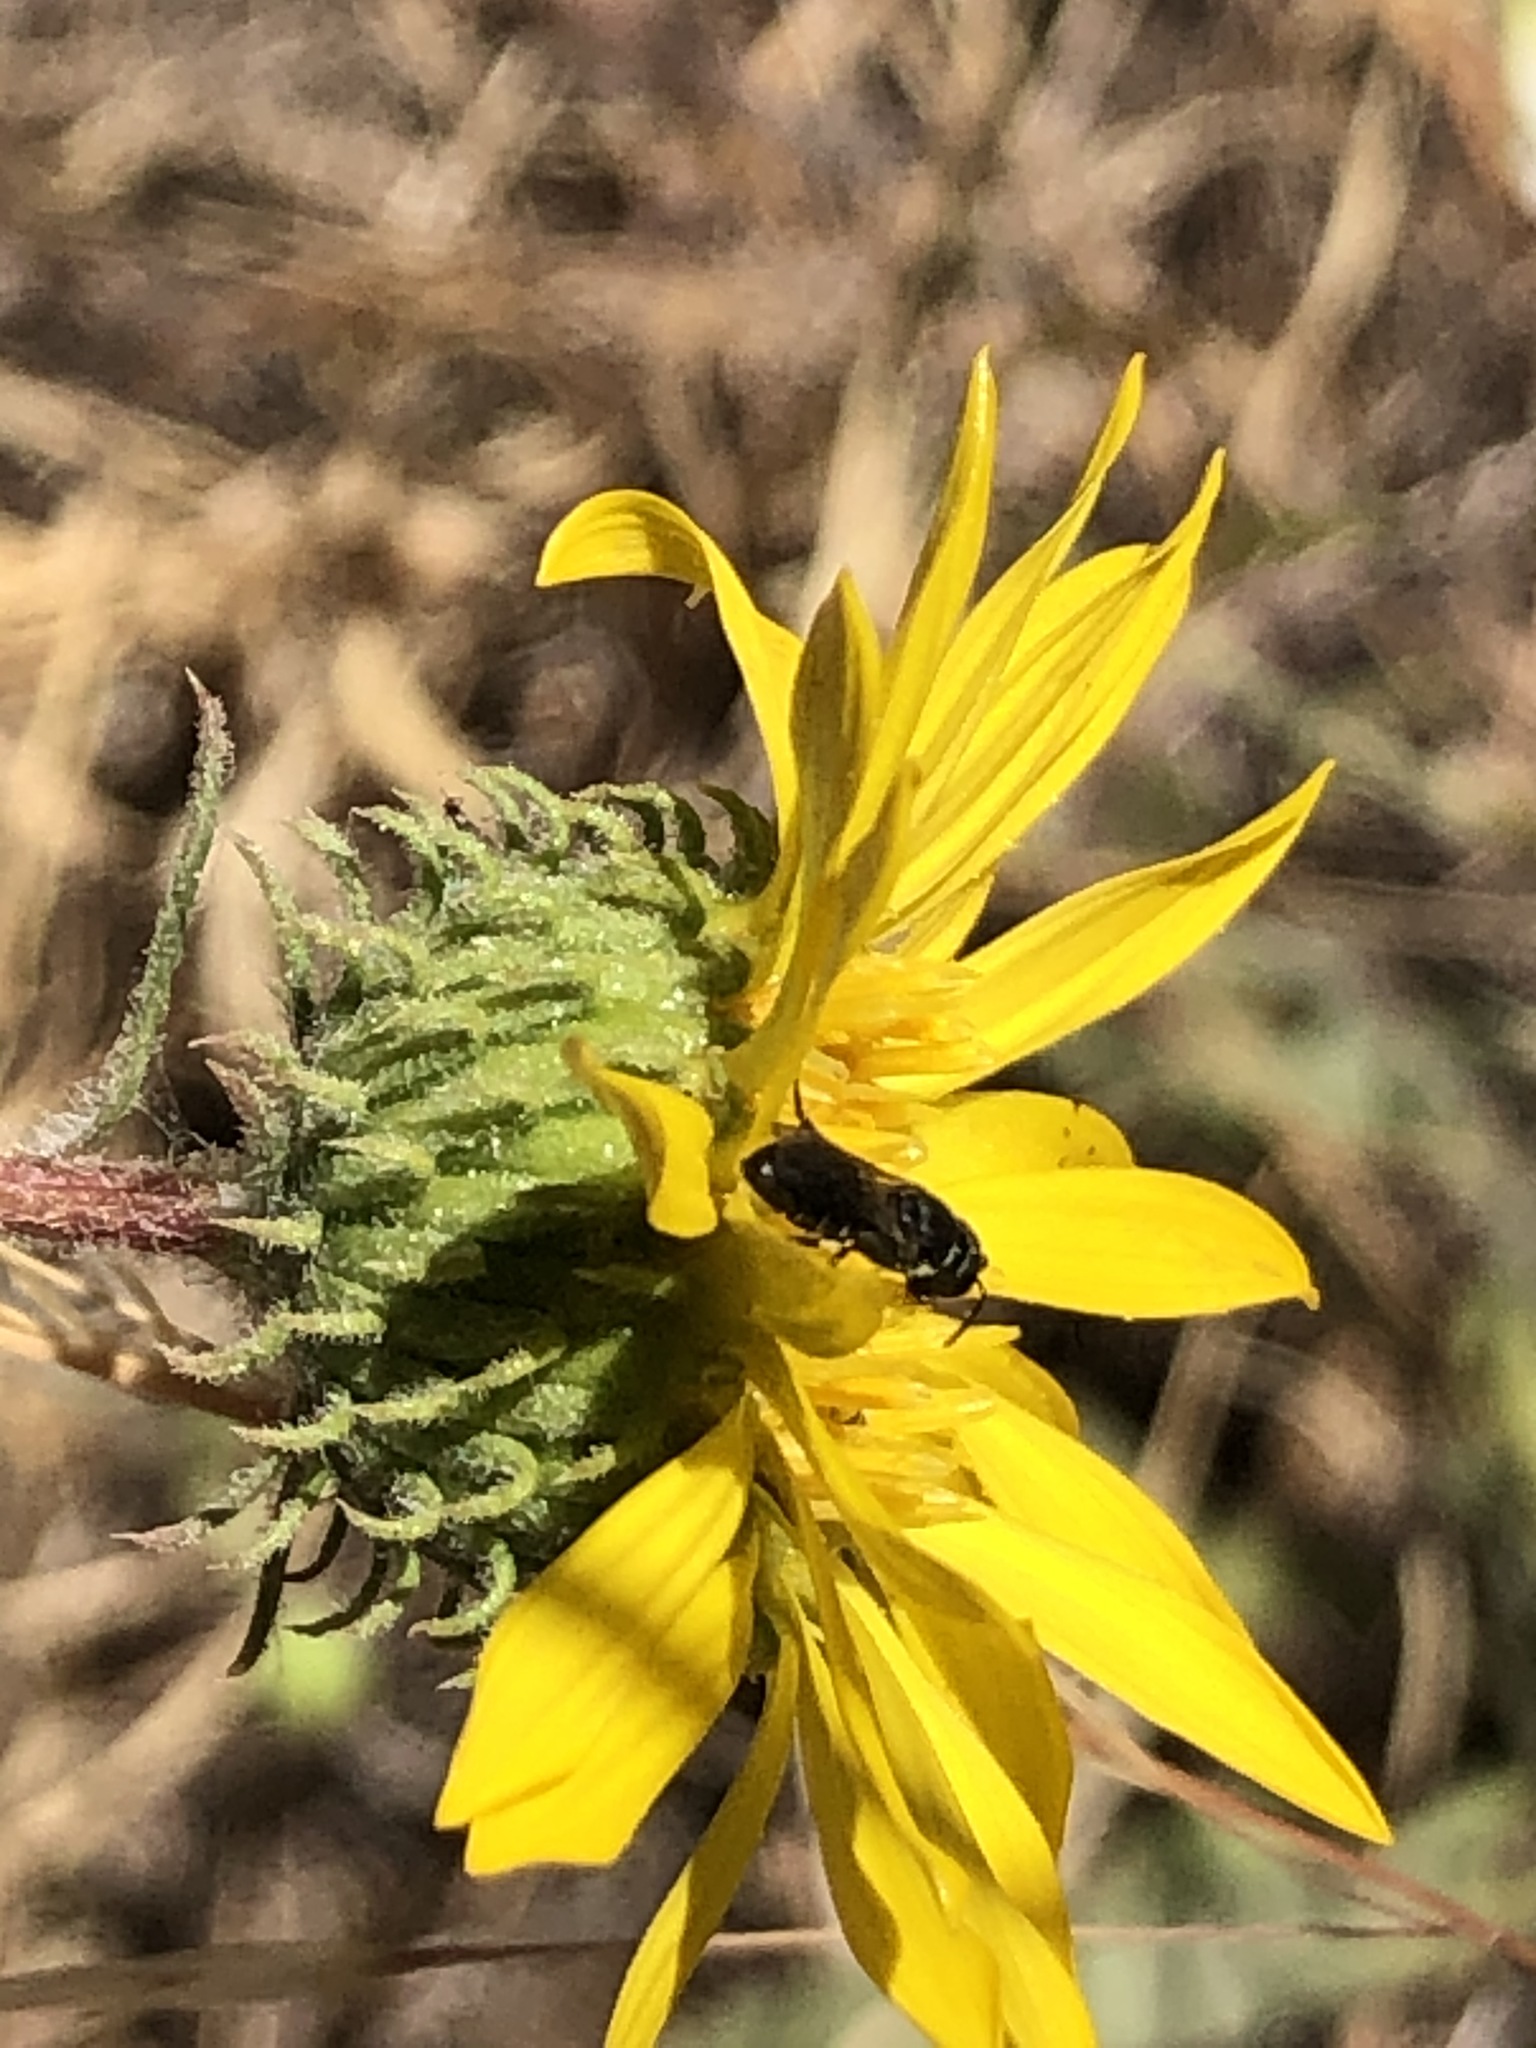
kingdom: Animalia
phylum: Arthropoda
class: Insecta
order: Hymenoptera
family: Colletidae
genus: Hylaeus
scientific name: Hylaeus
